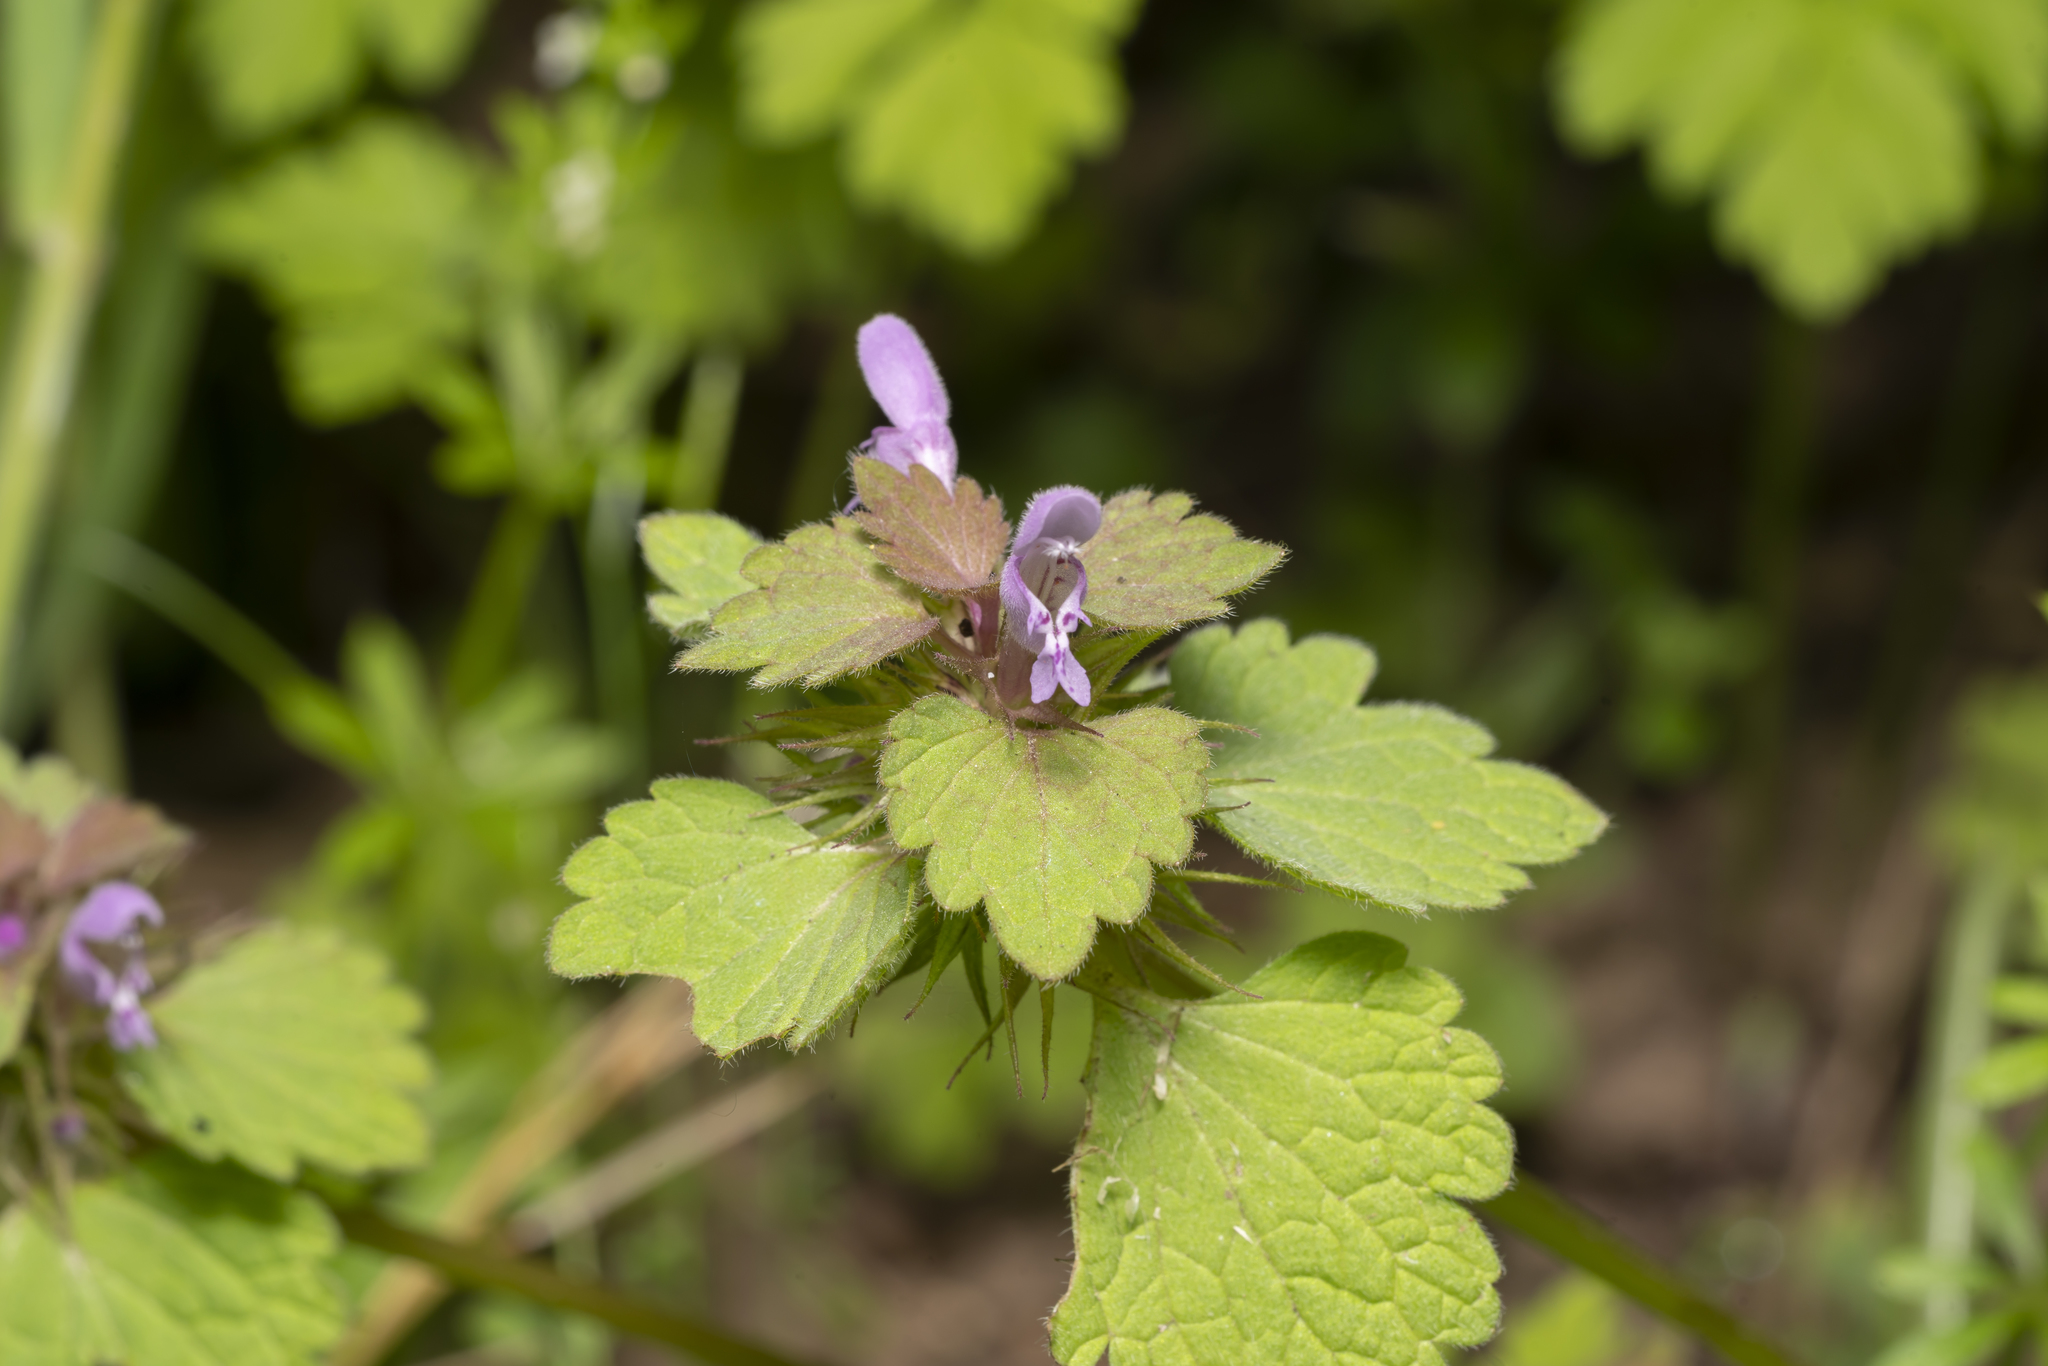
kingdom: Plantae
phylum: Tracheophyta
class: Magnoliopsida
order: Lamiales
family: Lamiaceae
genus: Lamium
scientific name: Lamium purpureum
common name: Red dead-nettle
